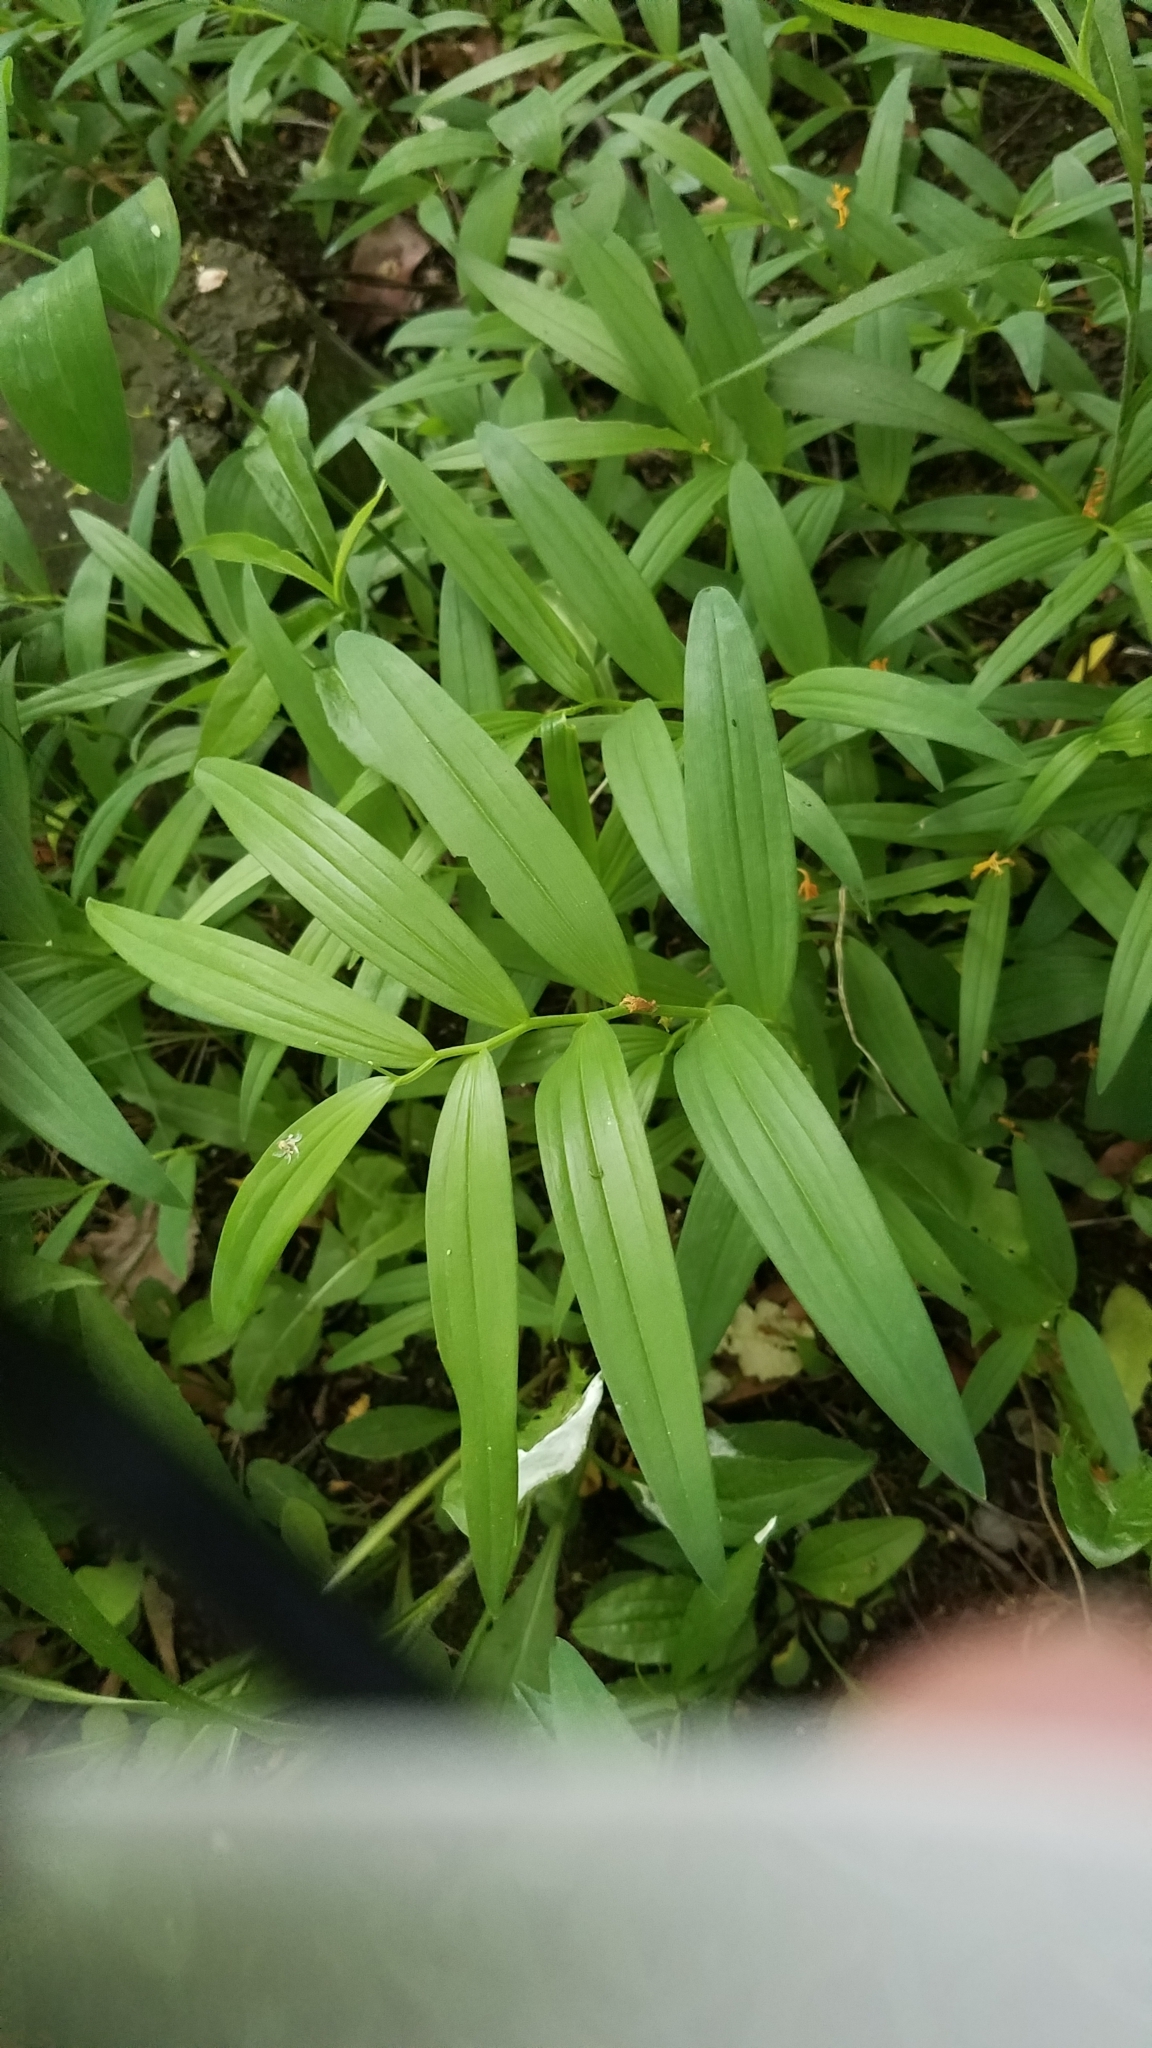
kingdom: Plantae
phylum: Tracheophyta
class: Liliopsida
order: Asparagales
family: Asparagaceae
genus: Maianthemum
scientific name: Maianthemum stellatum
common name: Little false solomon's seal
